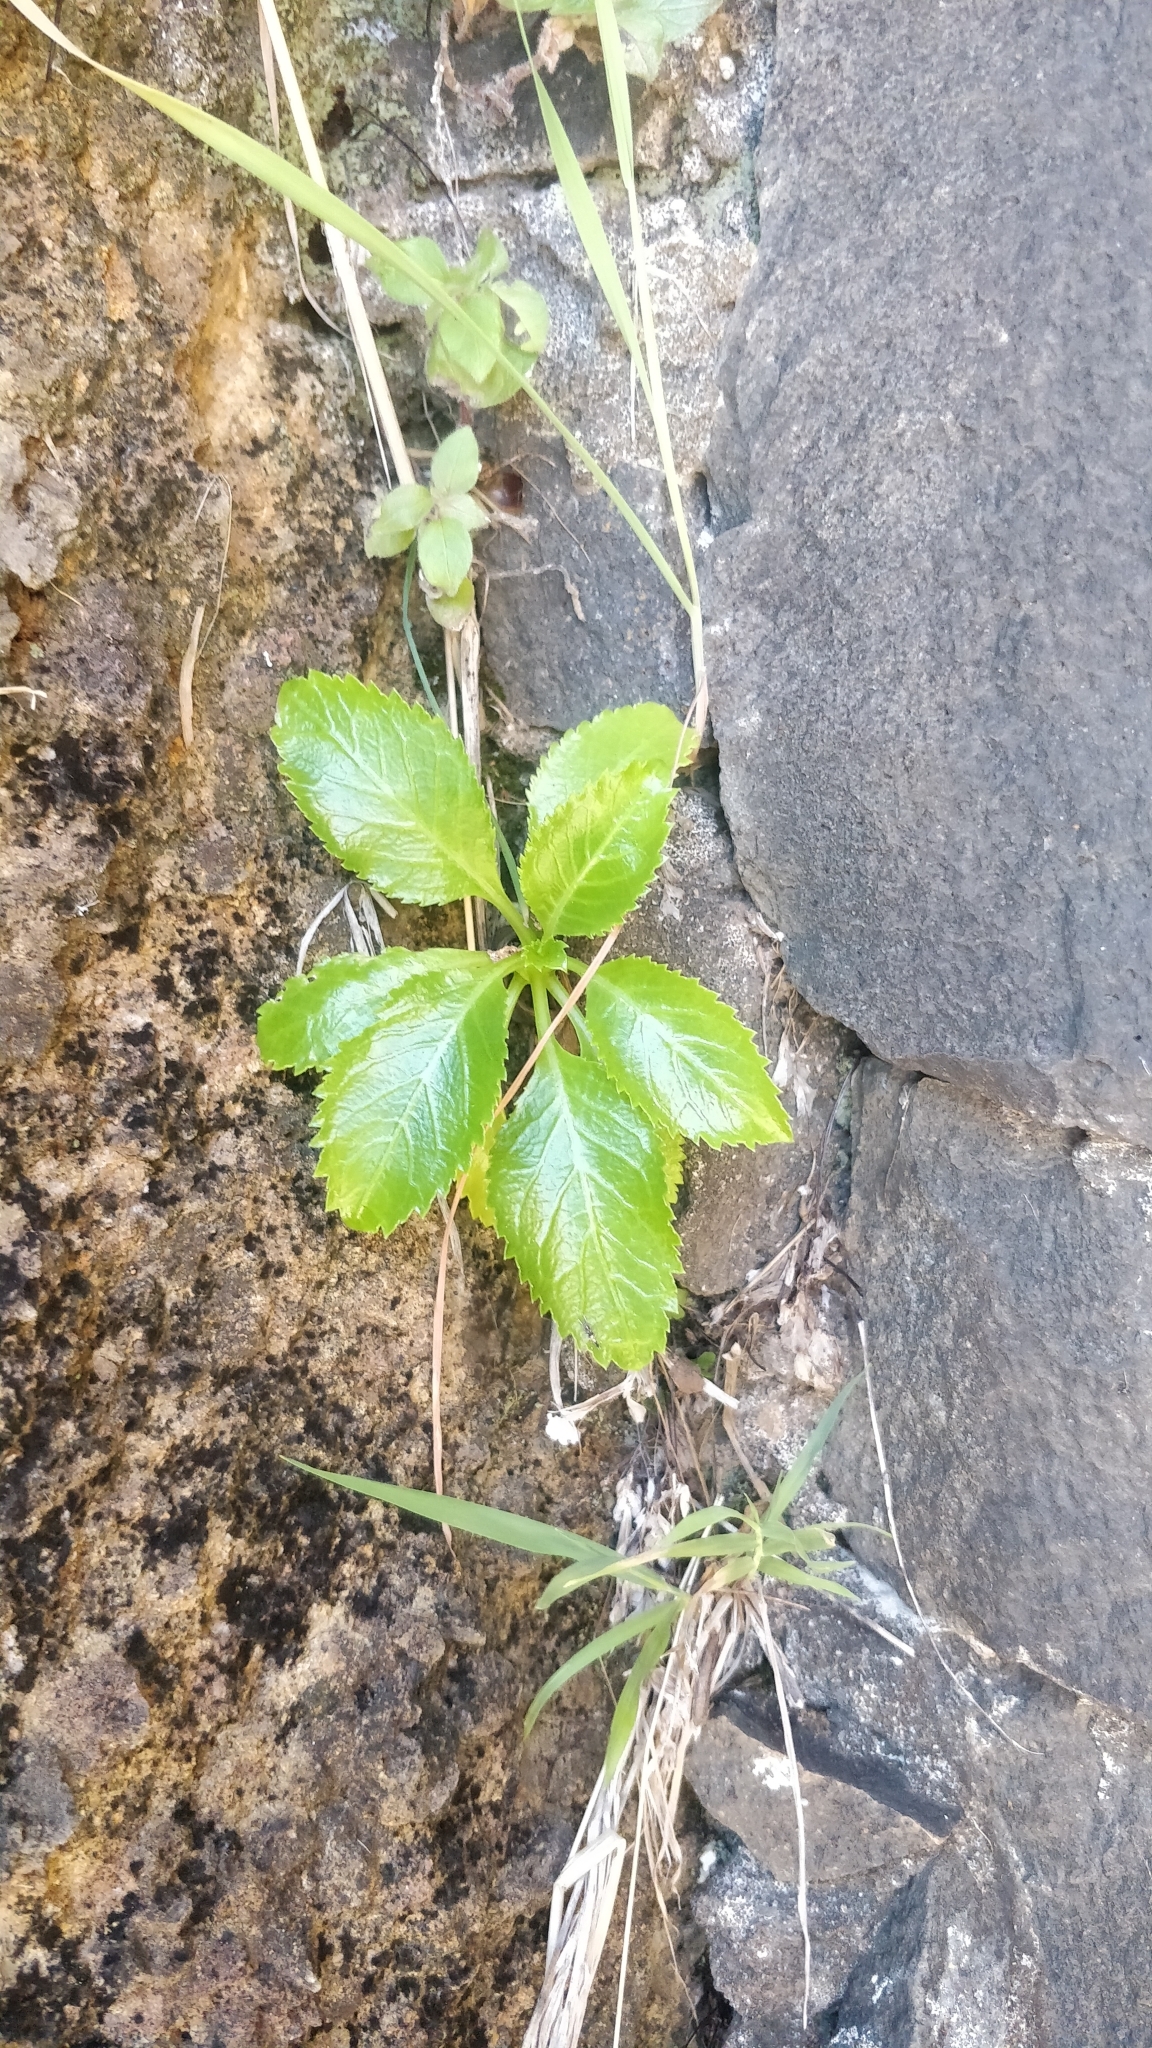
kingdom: Plantae
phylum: Tracheophyta
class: Magnoliopsida
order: Asterales
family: Campanulaceae
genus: Musschia
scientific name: Musschia aurea
